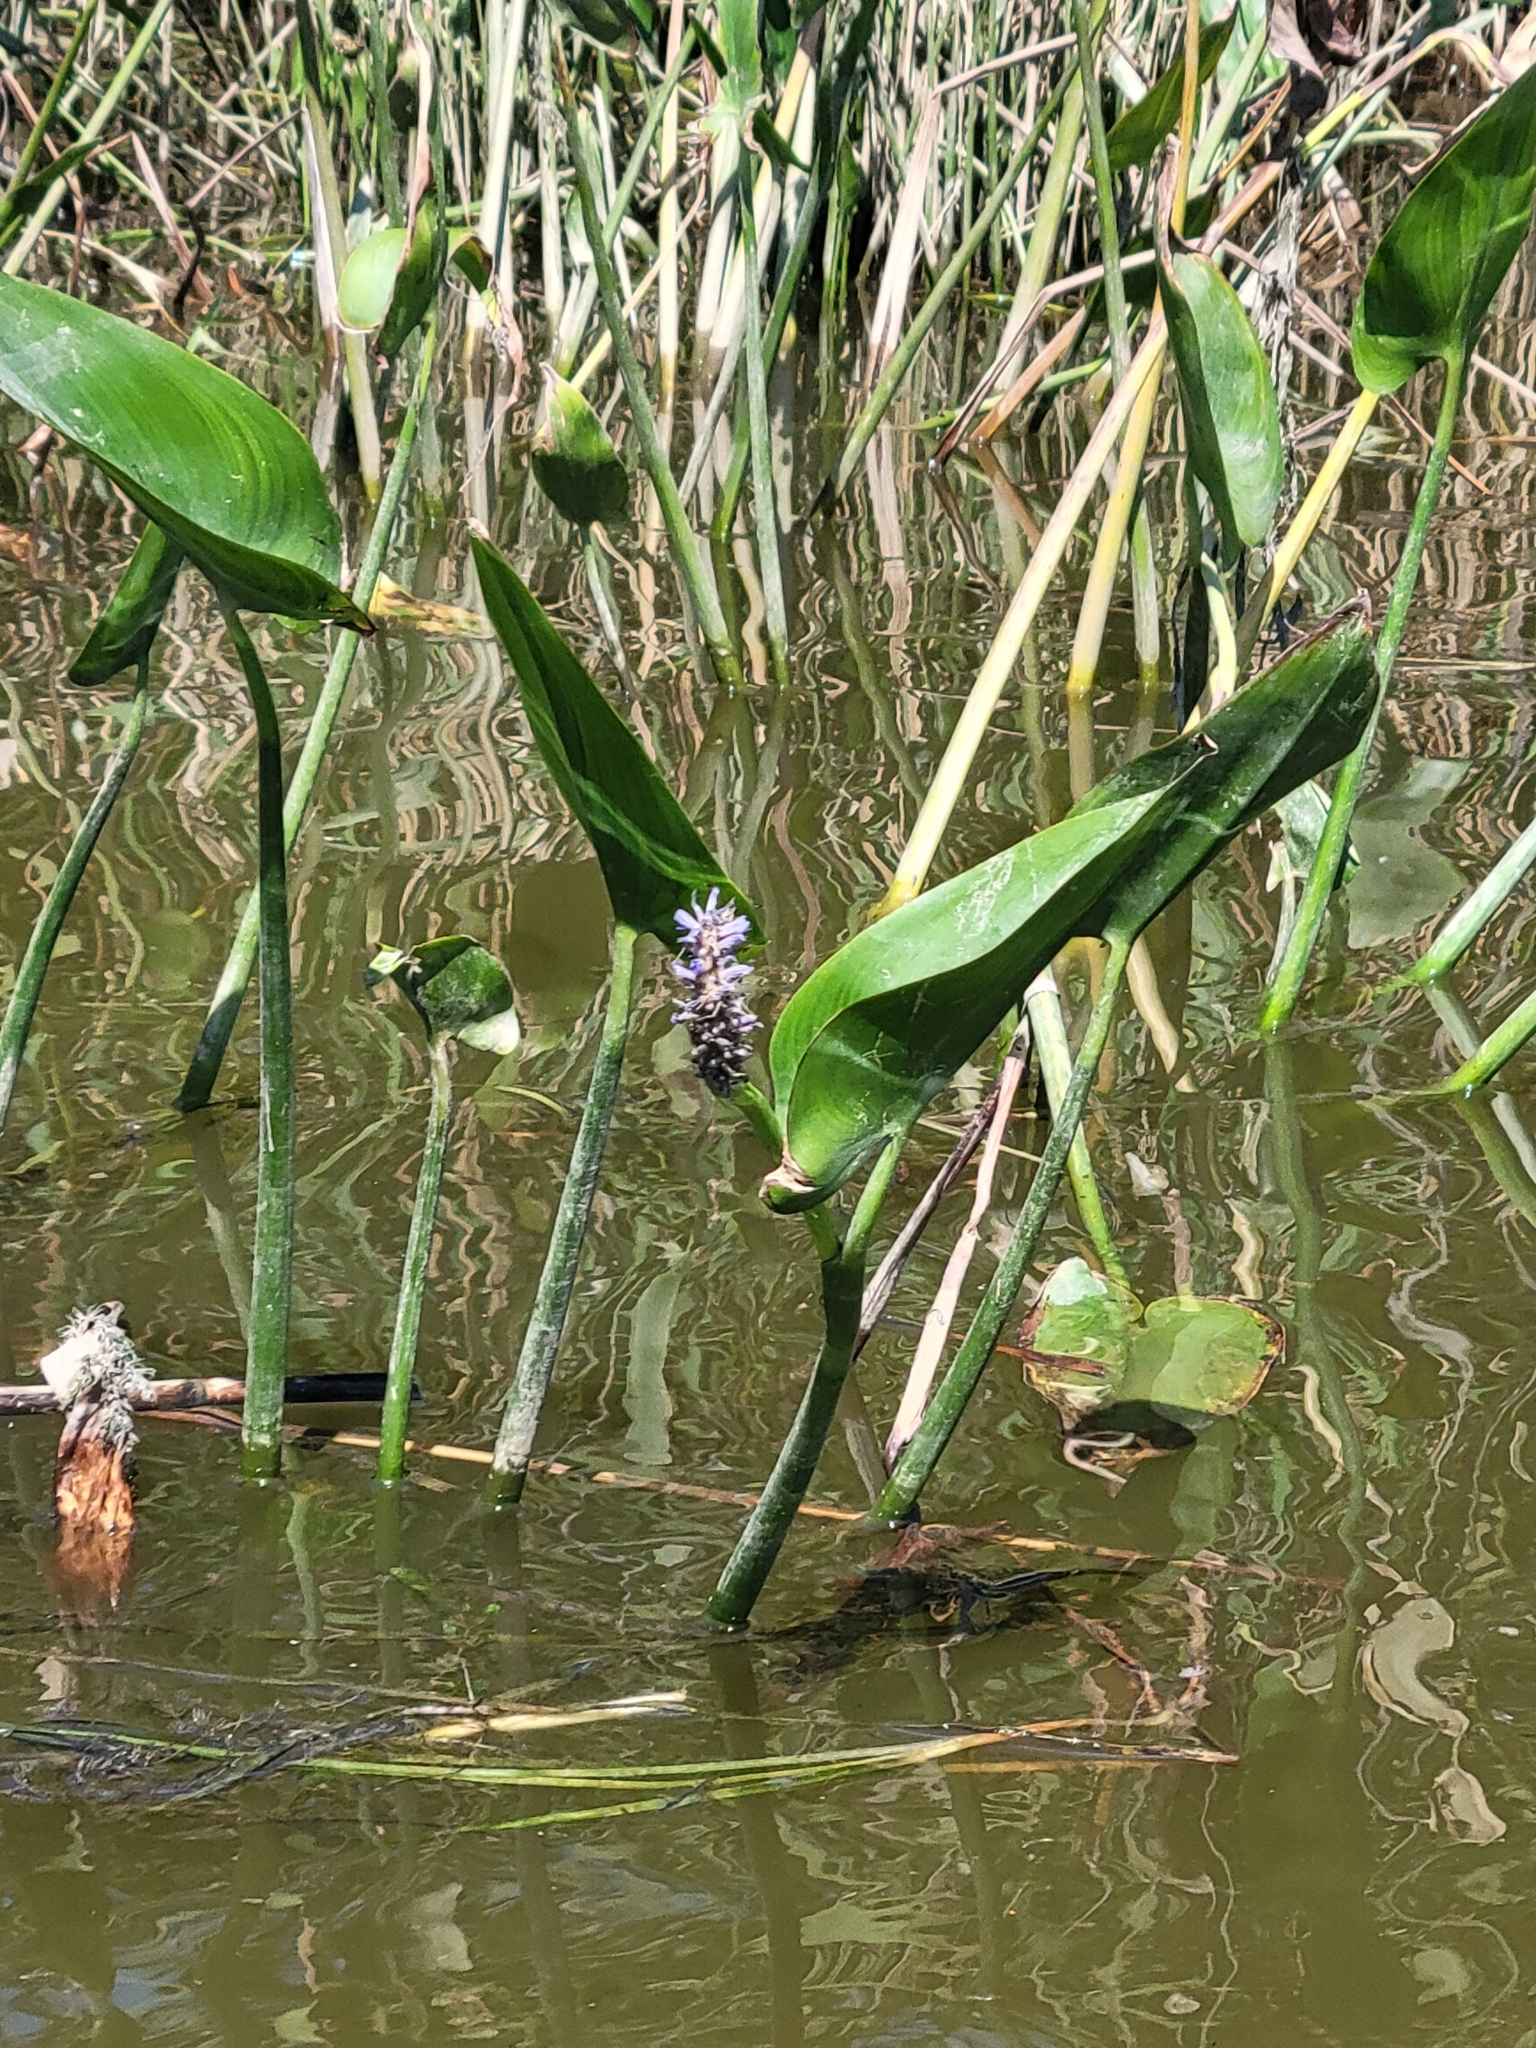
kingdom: Plantae
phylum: Tracheophyta
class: Liliopsida
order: Commelinales
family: Pontederiaceae
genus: Pontederia
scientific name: Pontederia cordata
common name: Pickerelweed
